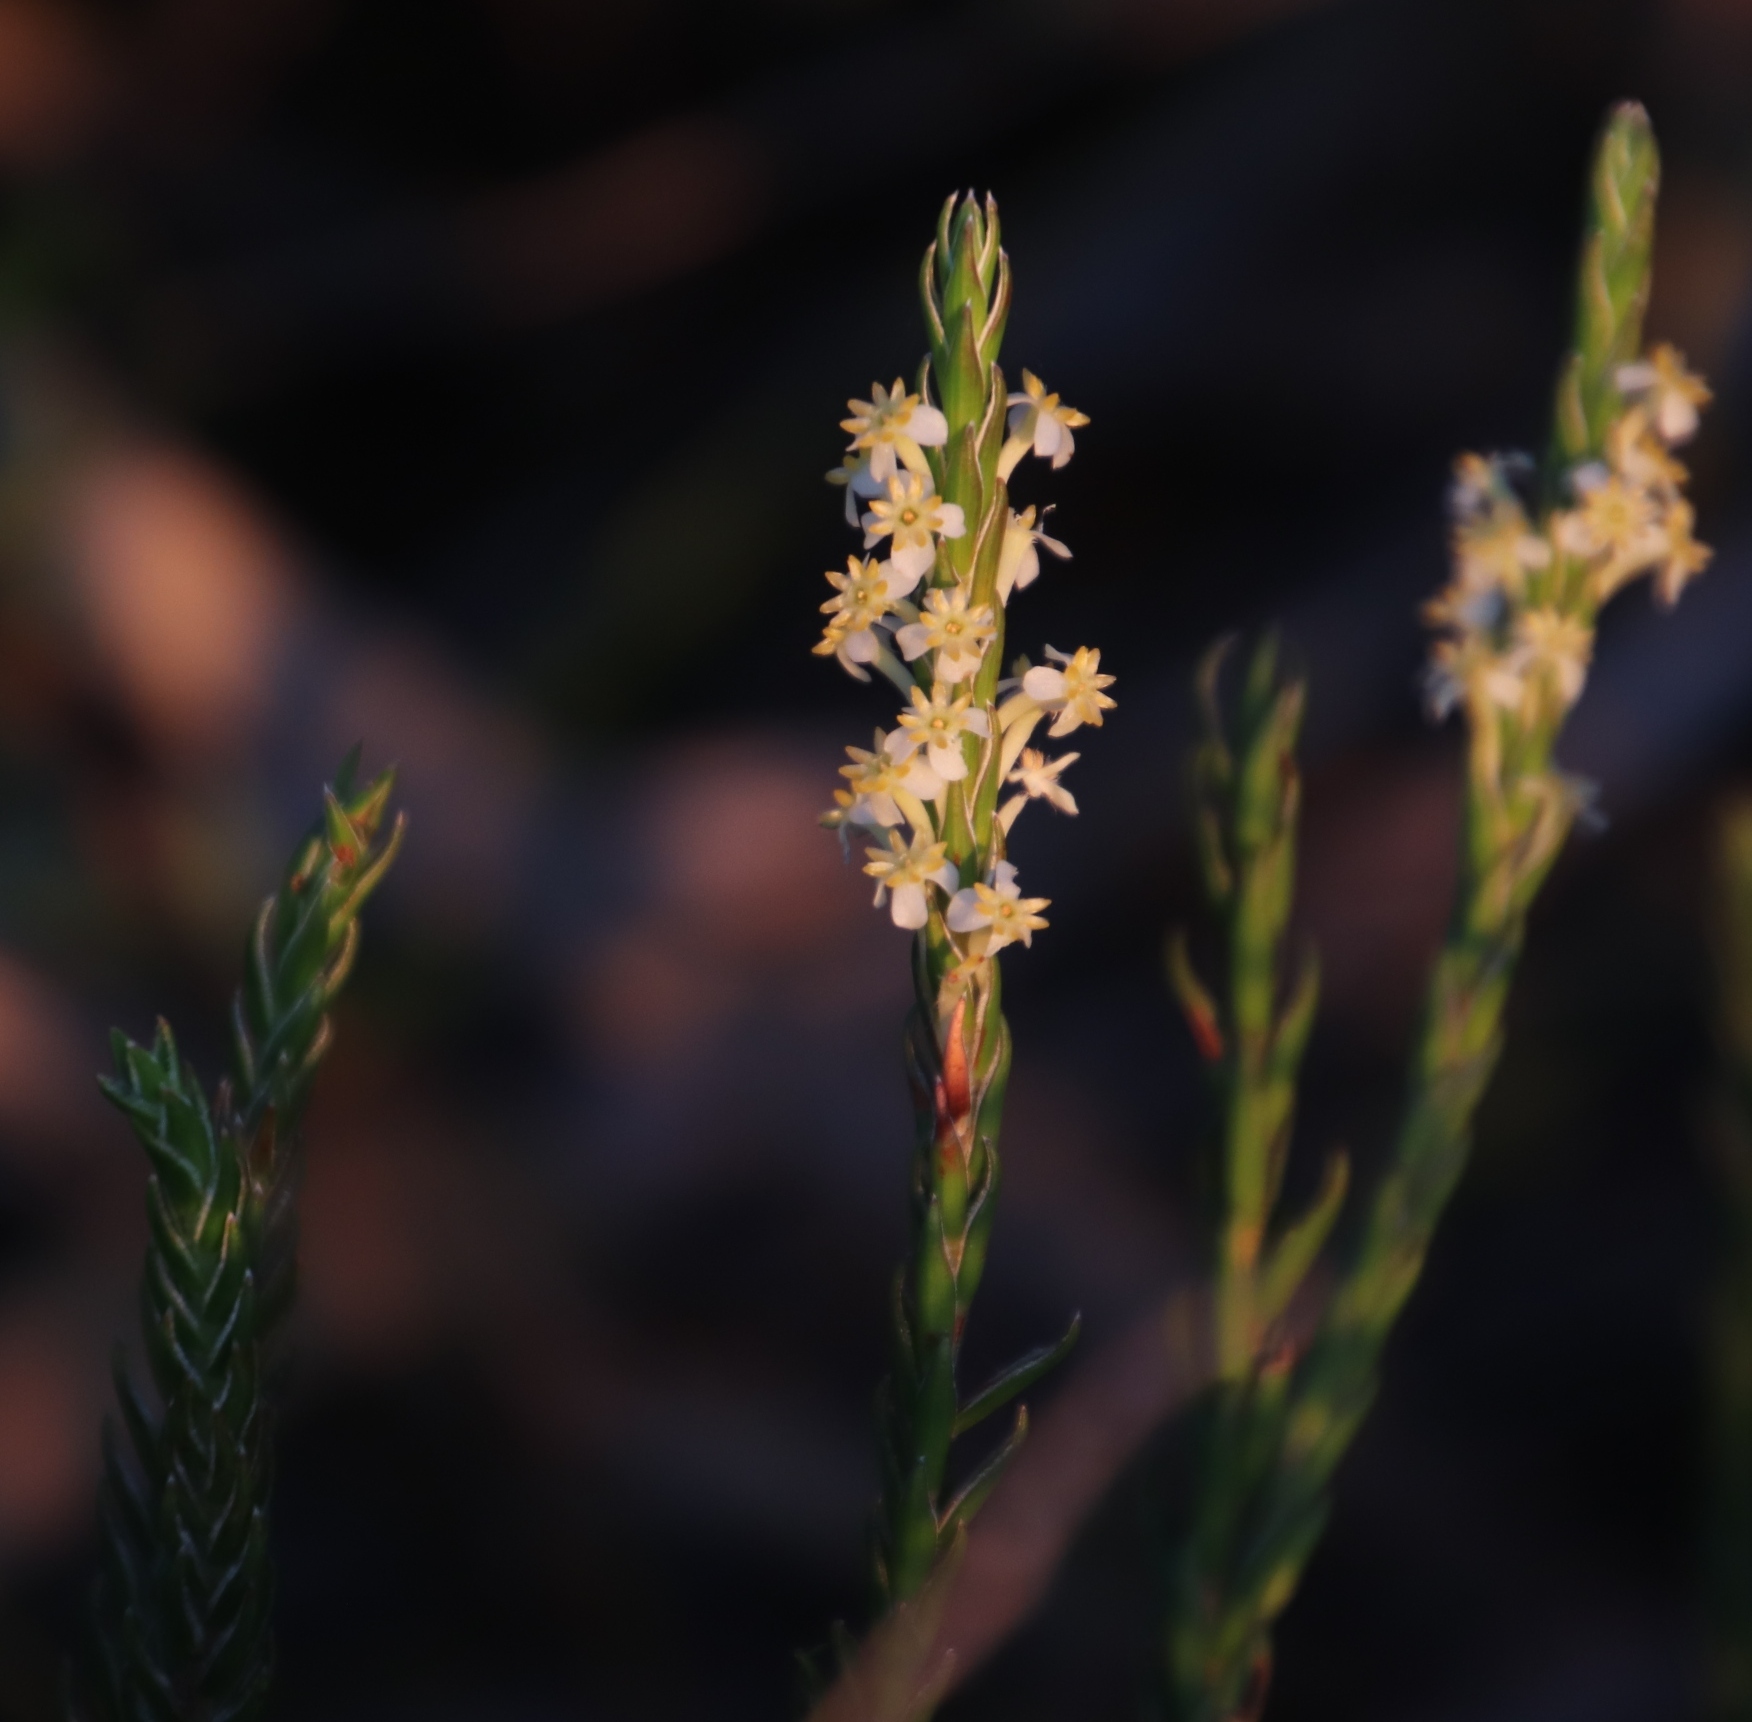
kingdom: Plantae
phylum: Tracheophyta
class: Magnoliopsida
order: Malvales
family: Thymelaeaceae
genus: Struthiola
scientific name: Struthiola ciliata
